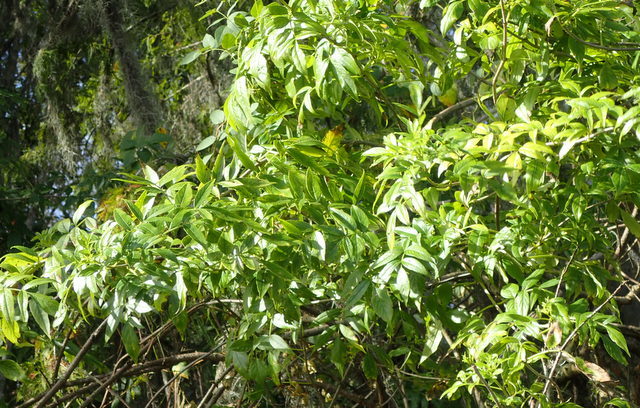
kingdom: Plantae
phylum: Tracheophyta
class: Magnoliopsida
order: Dipsacales
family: Viburnaceae
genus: Sambucus
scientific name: Sambucus canadensis
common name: American elder
